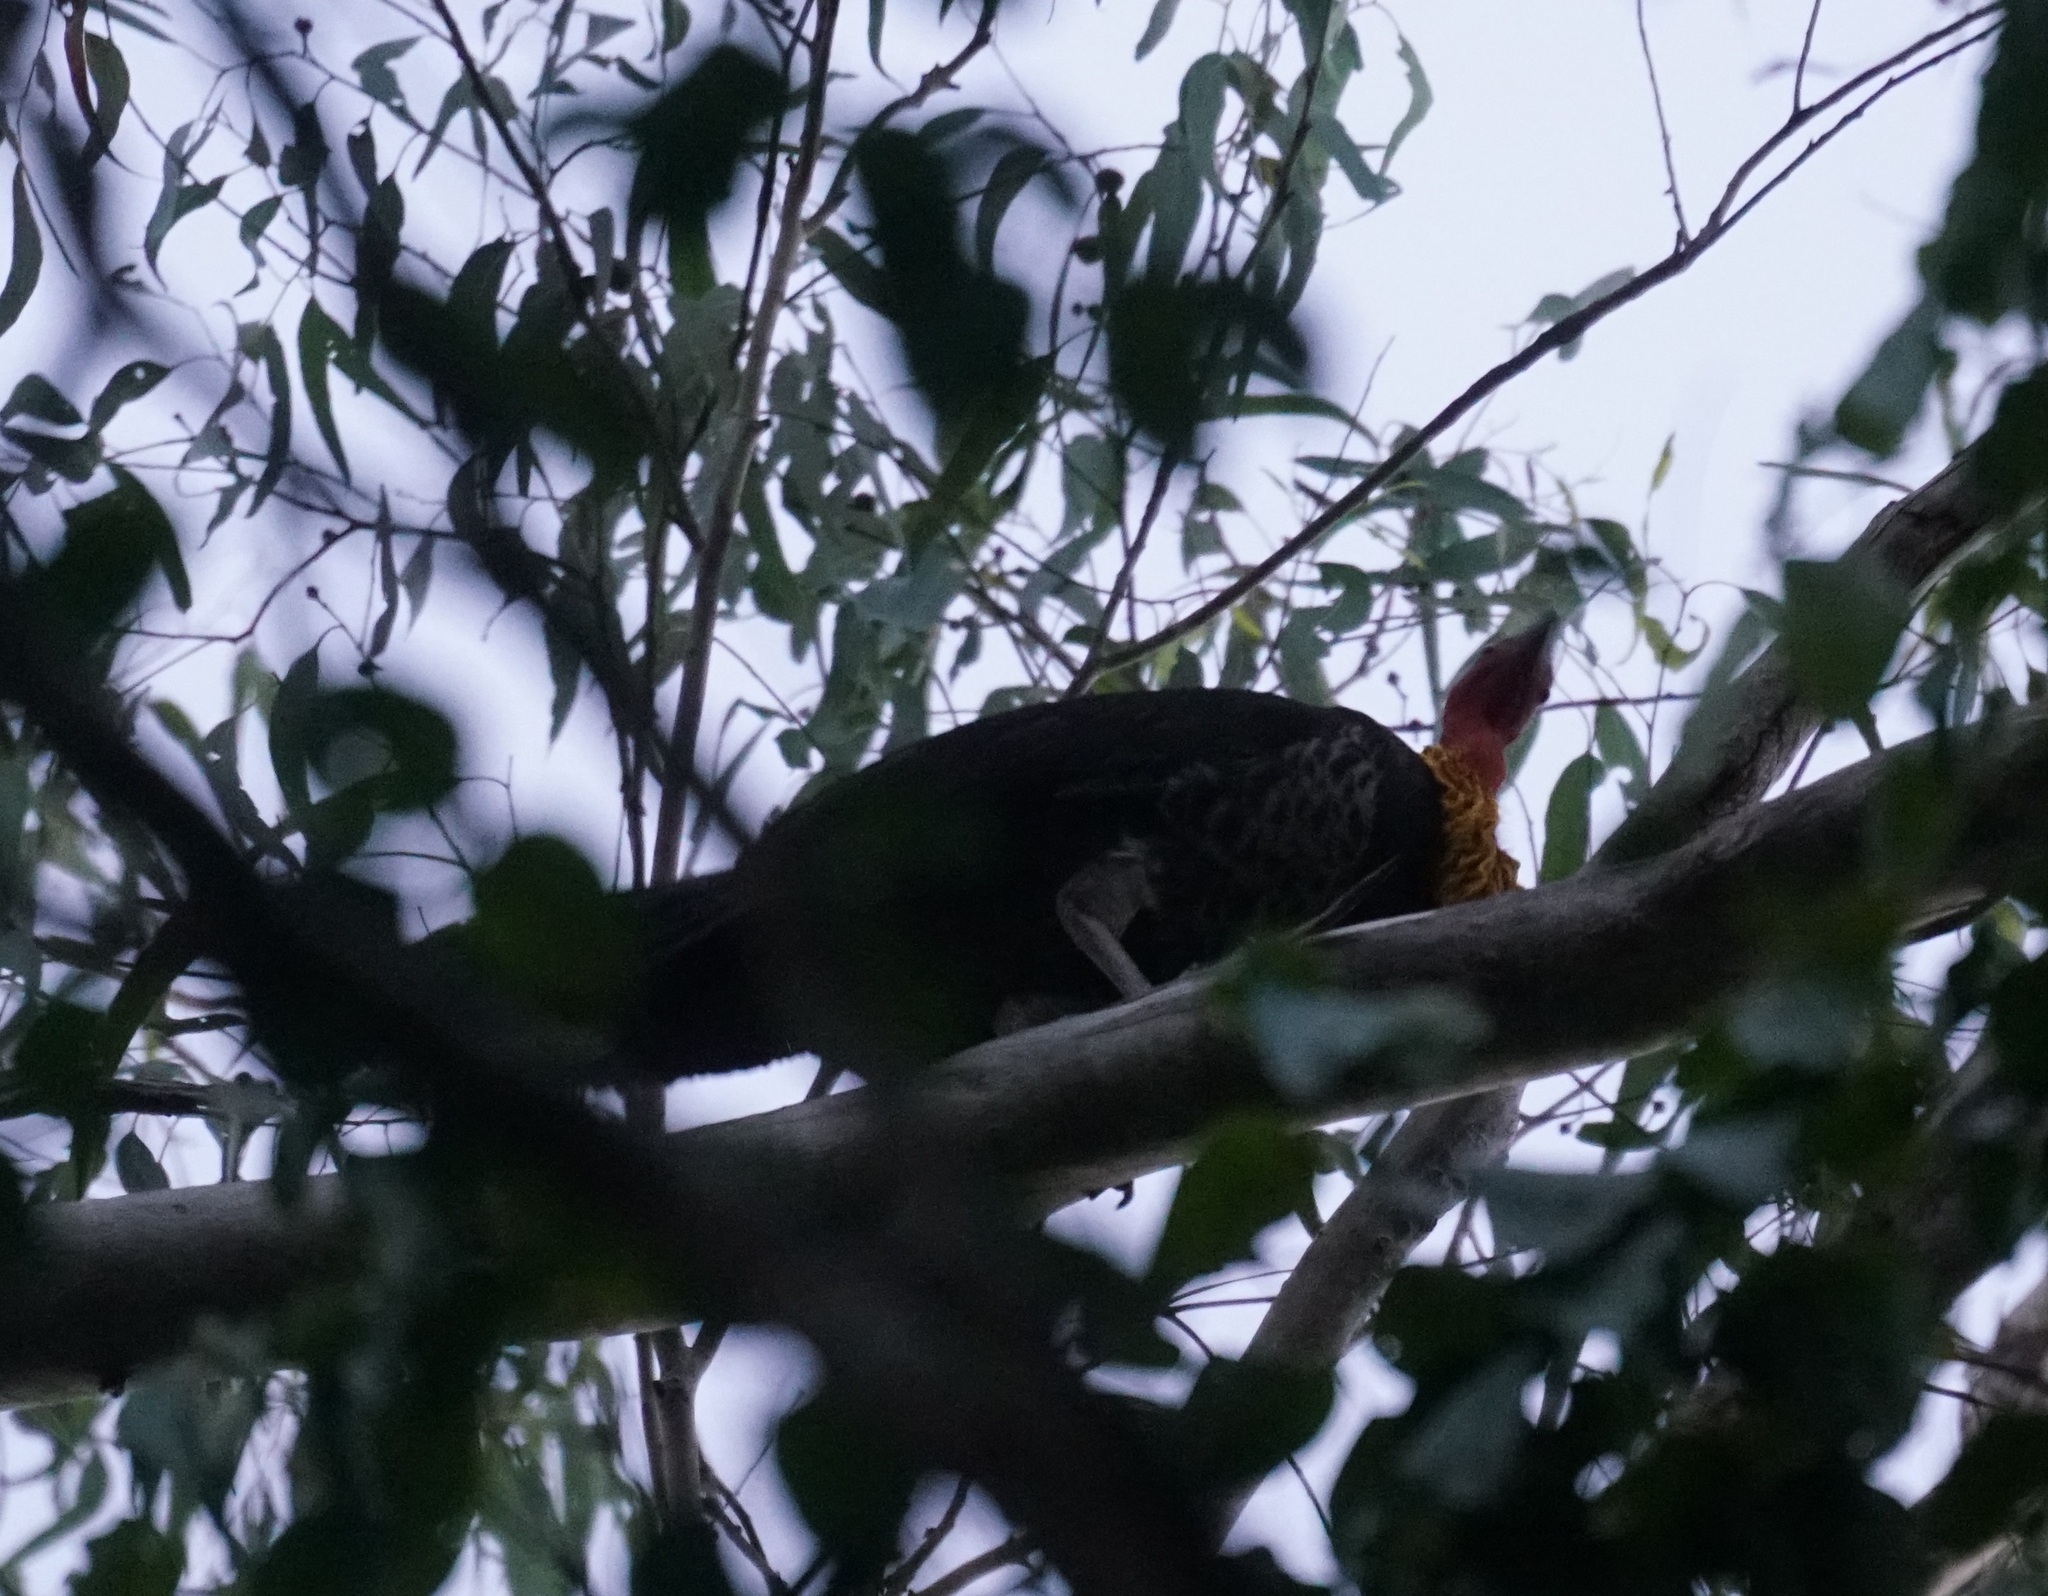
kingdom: Animalia
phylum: Chordata
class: Aves
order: Galliformes
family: Megapodiidae
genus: Alectura
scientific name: Alectura lathami
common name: Australian brushturkey
